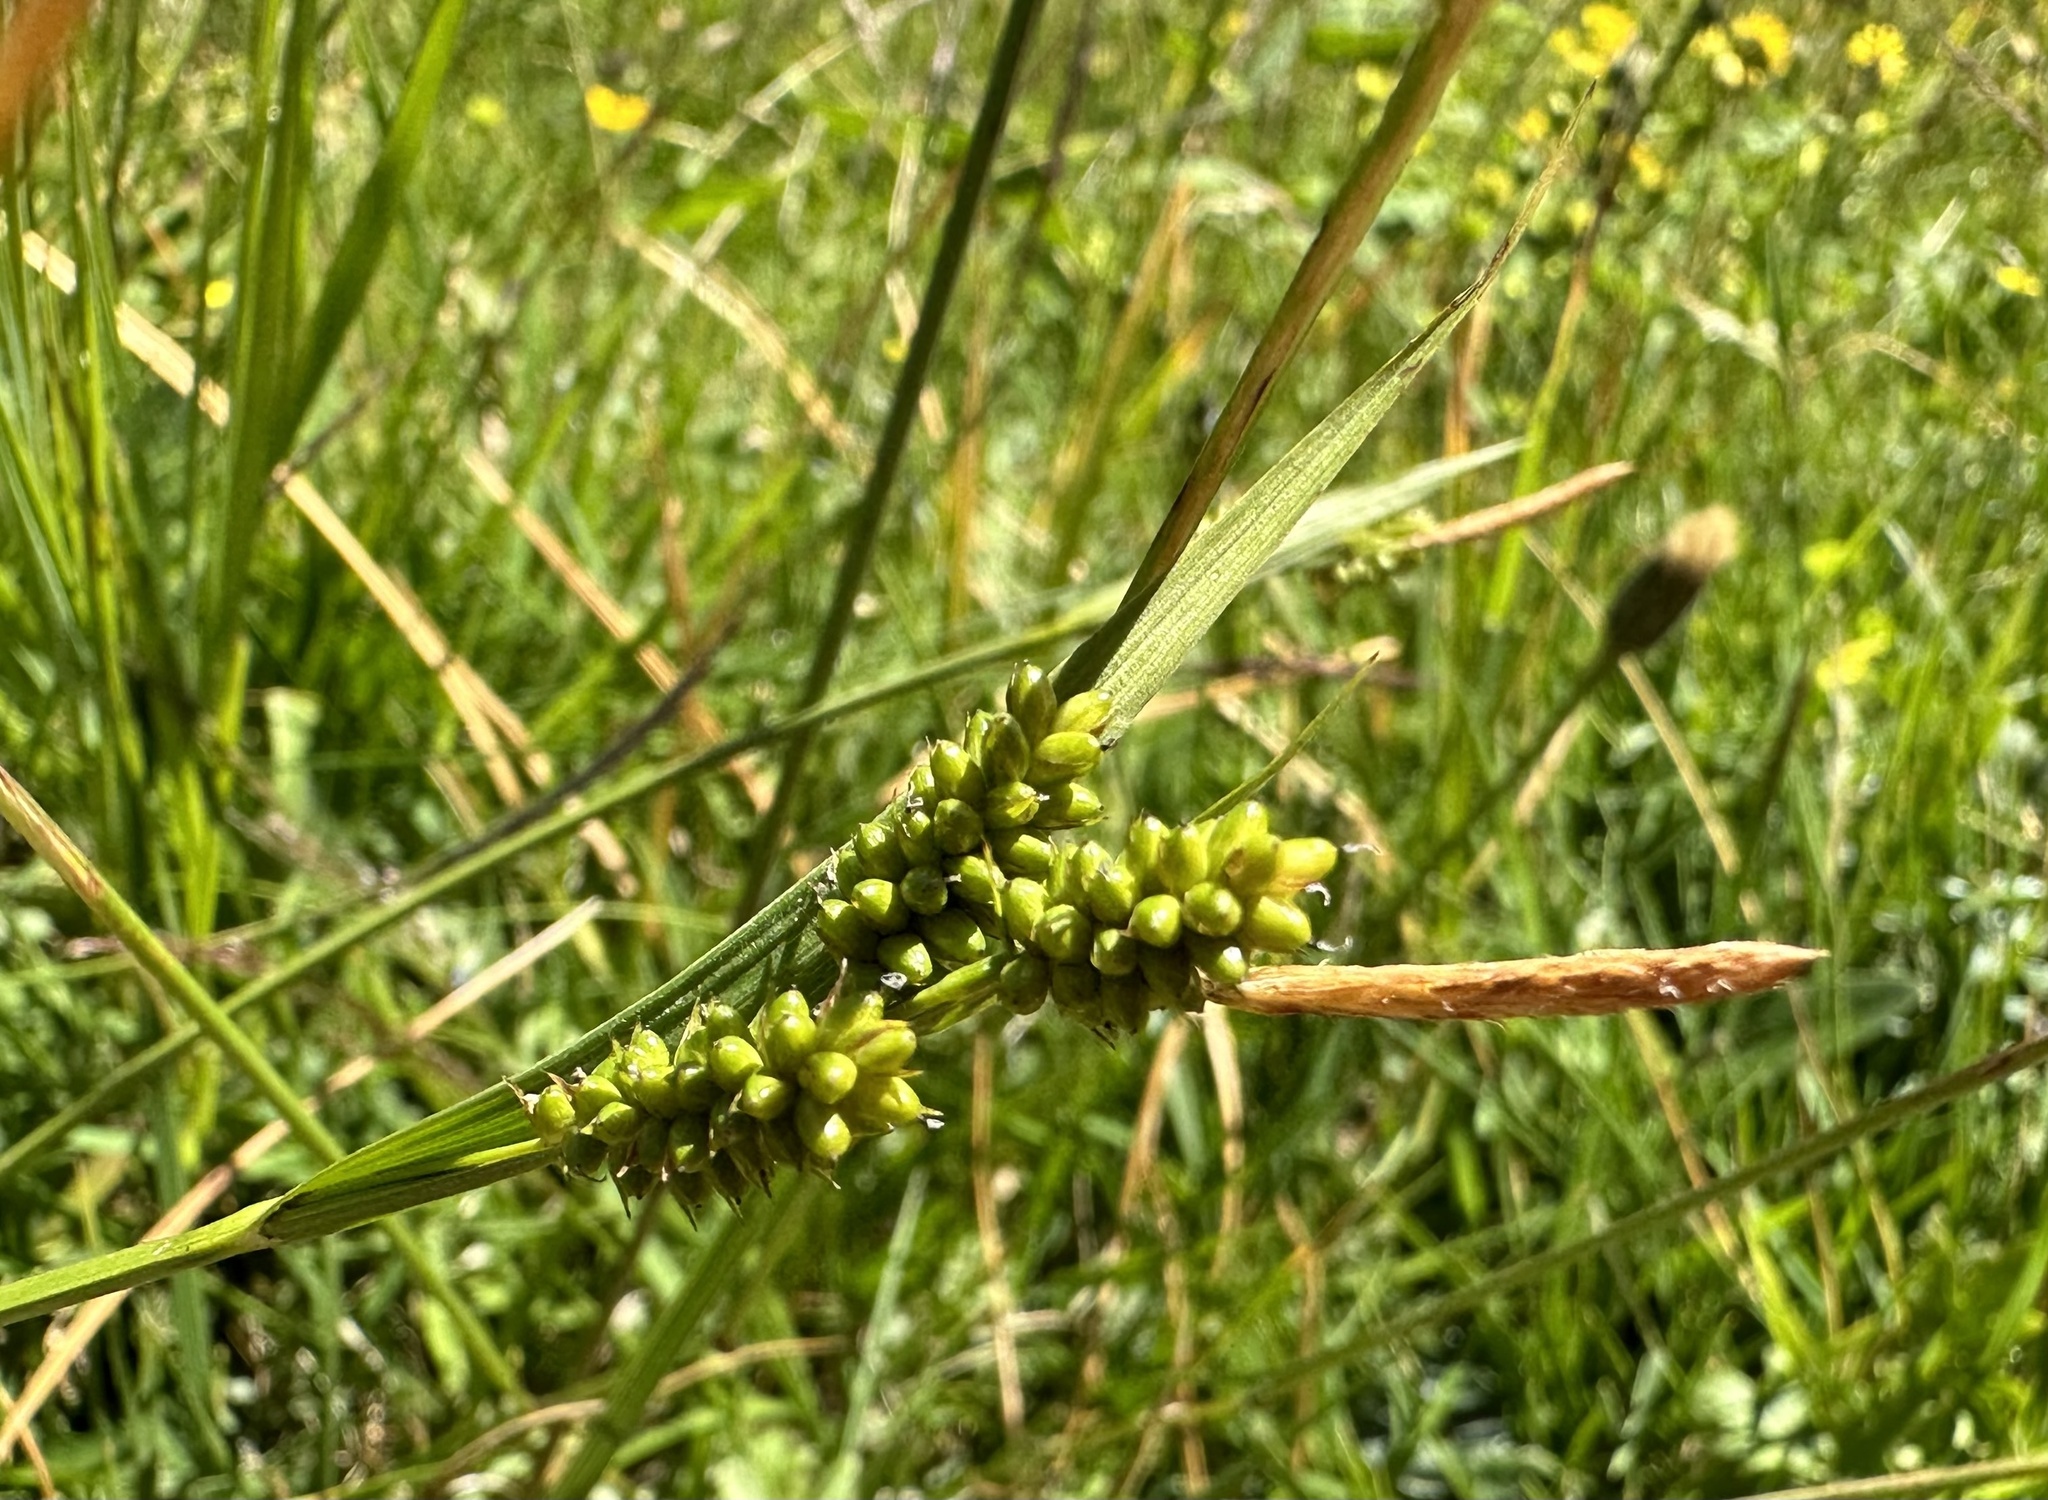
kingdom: Plantae
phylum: Tracheophyta
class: Liliopsida
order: Poales
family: Cyperaceae
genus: Carex
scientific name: Carex pallescens
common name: Pale sedge
